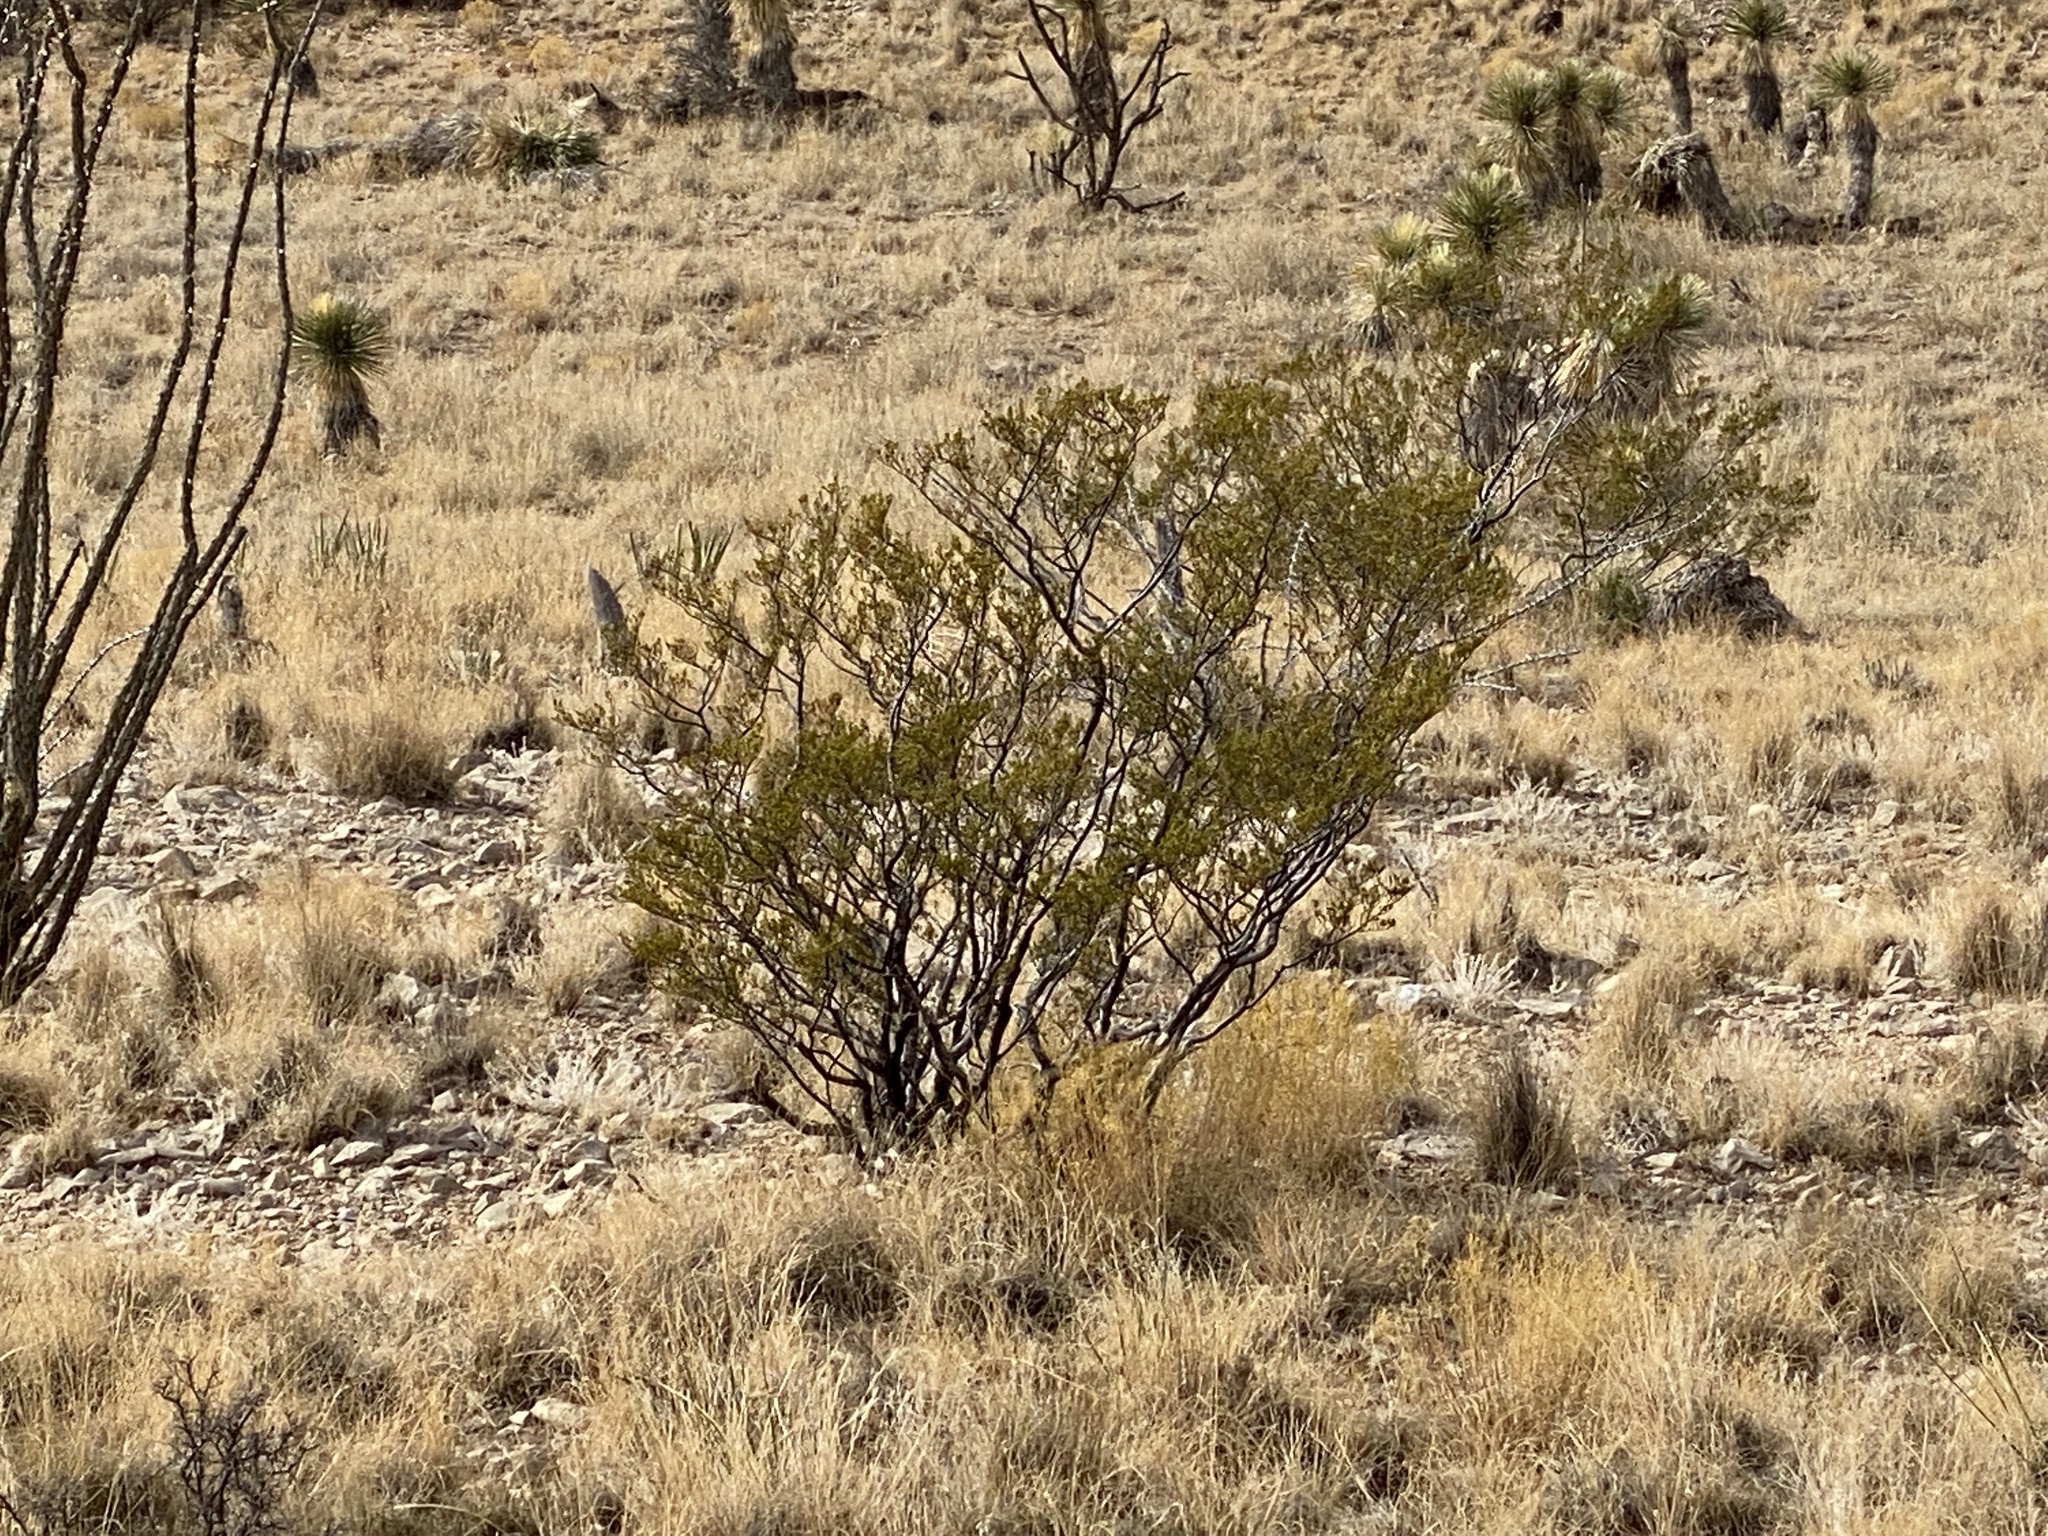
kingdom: Plantae
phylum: Tracheophyta
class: Magnoliopsida
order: Zygophyllales
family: Zygophyllaceae
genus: Larrea
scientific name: Larrea tridentata
